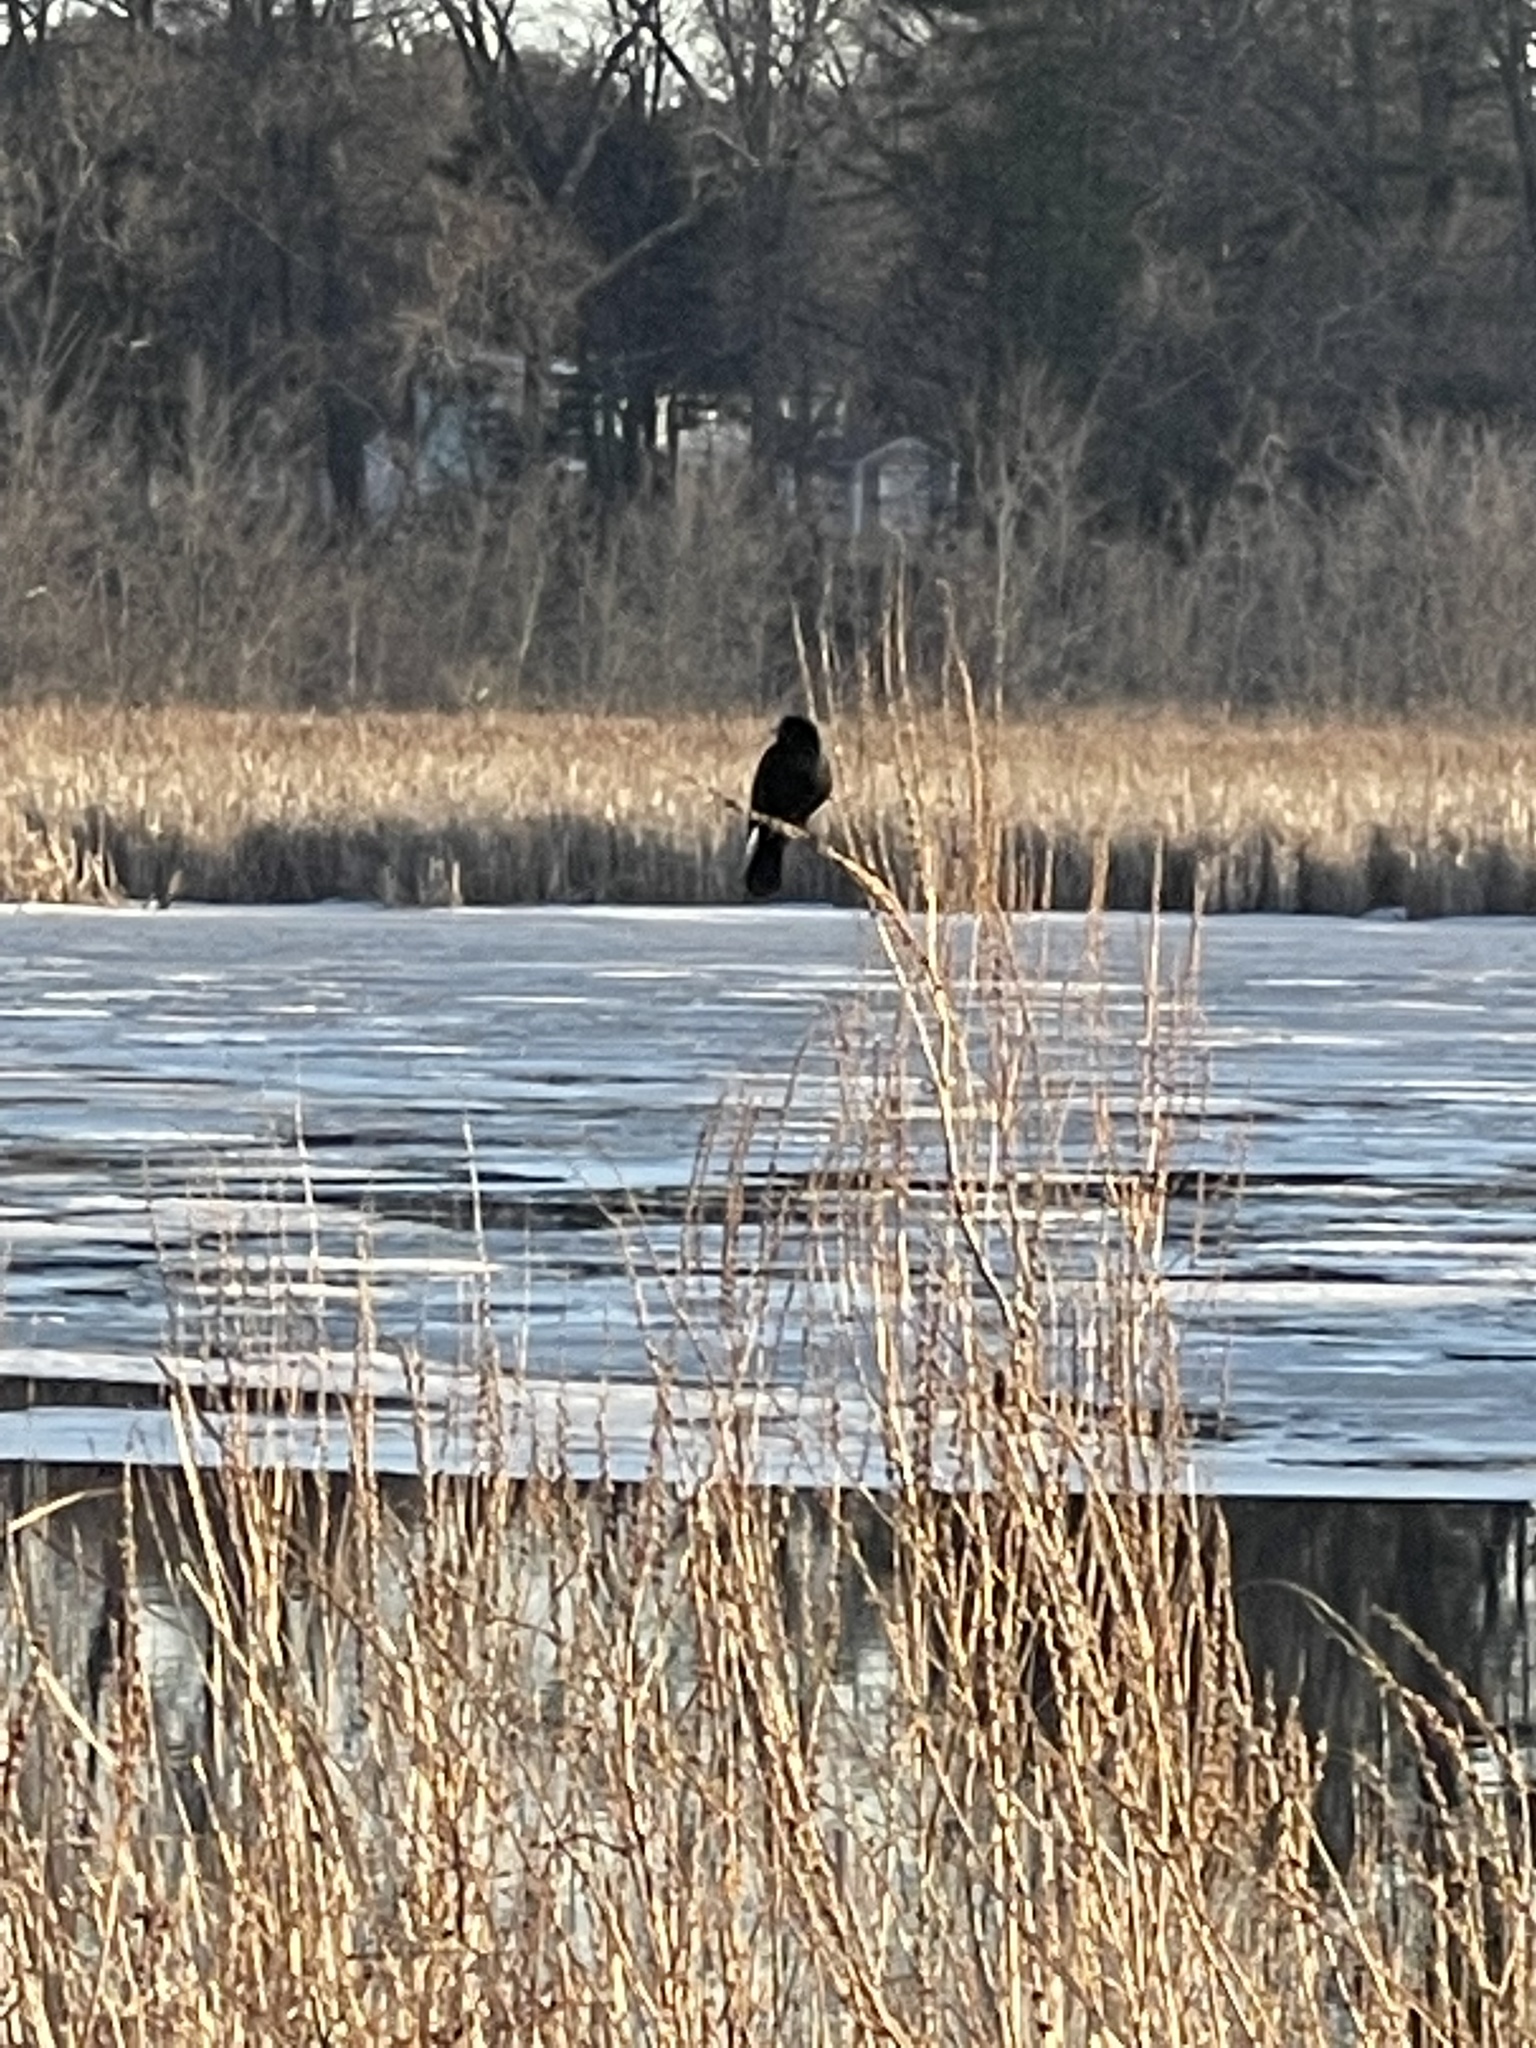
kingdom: Animalia
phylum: Chordata
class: Aves
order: Passeriformes
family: Icteridae
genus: Agelaius
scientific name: Agelaius phoeniceus
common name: Red-winged blackbird
